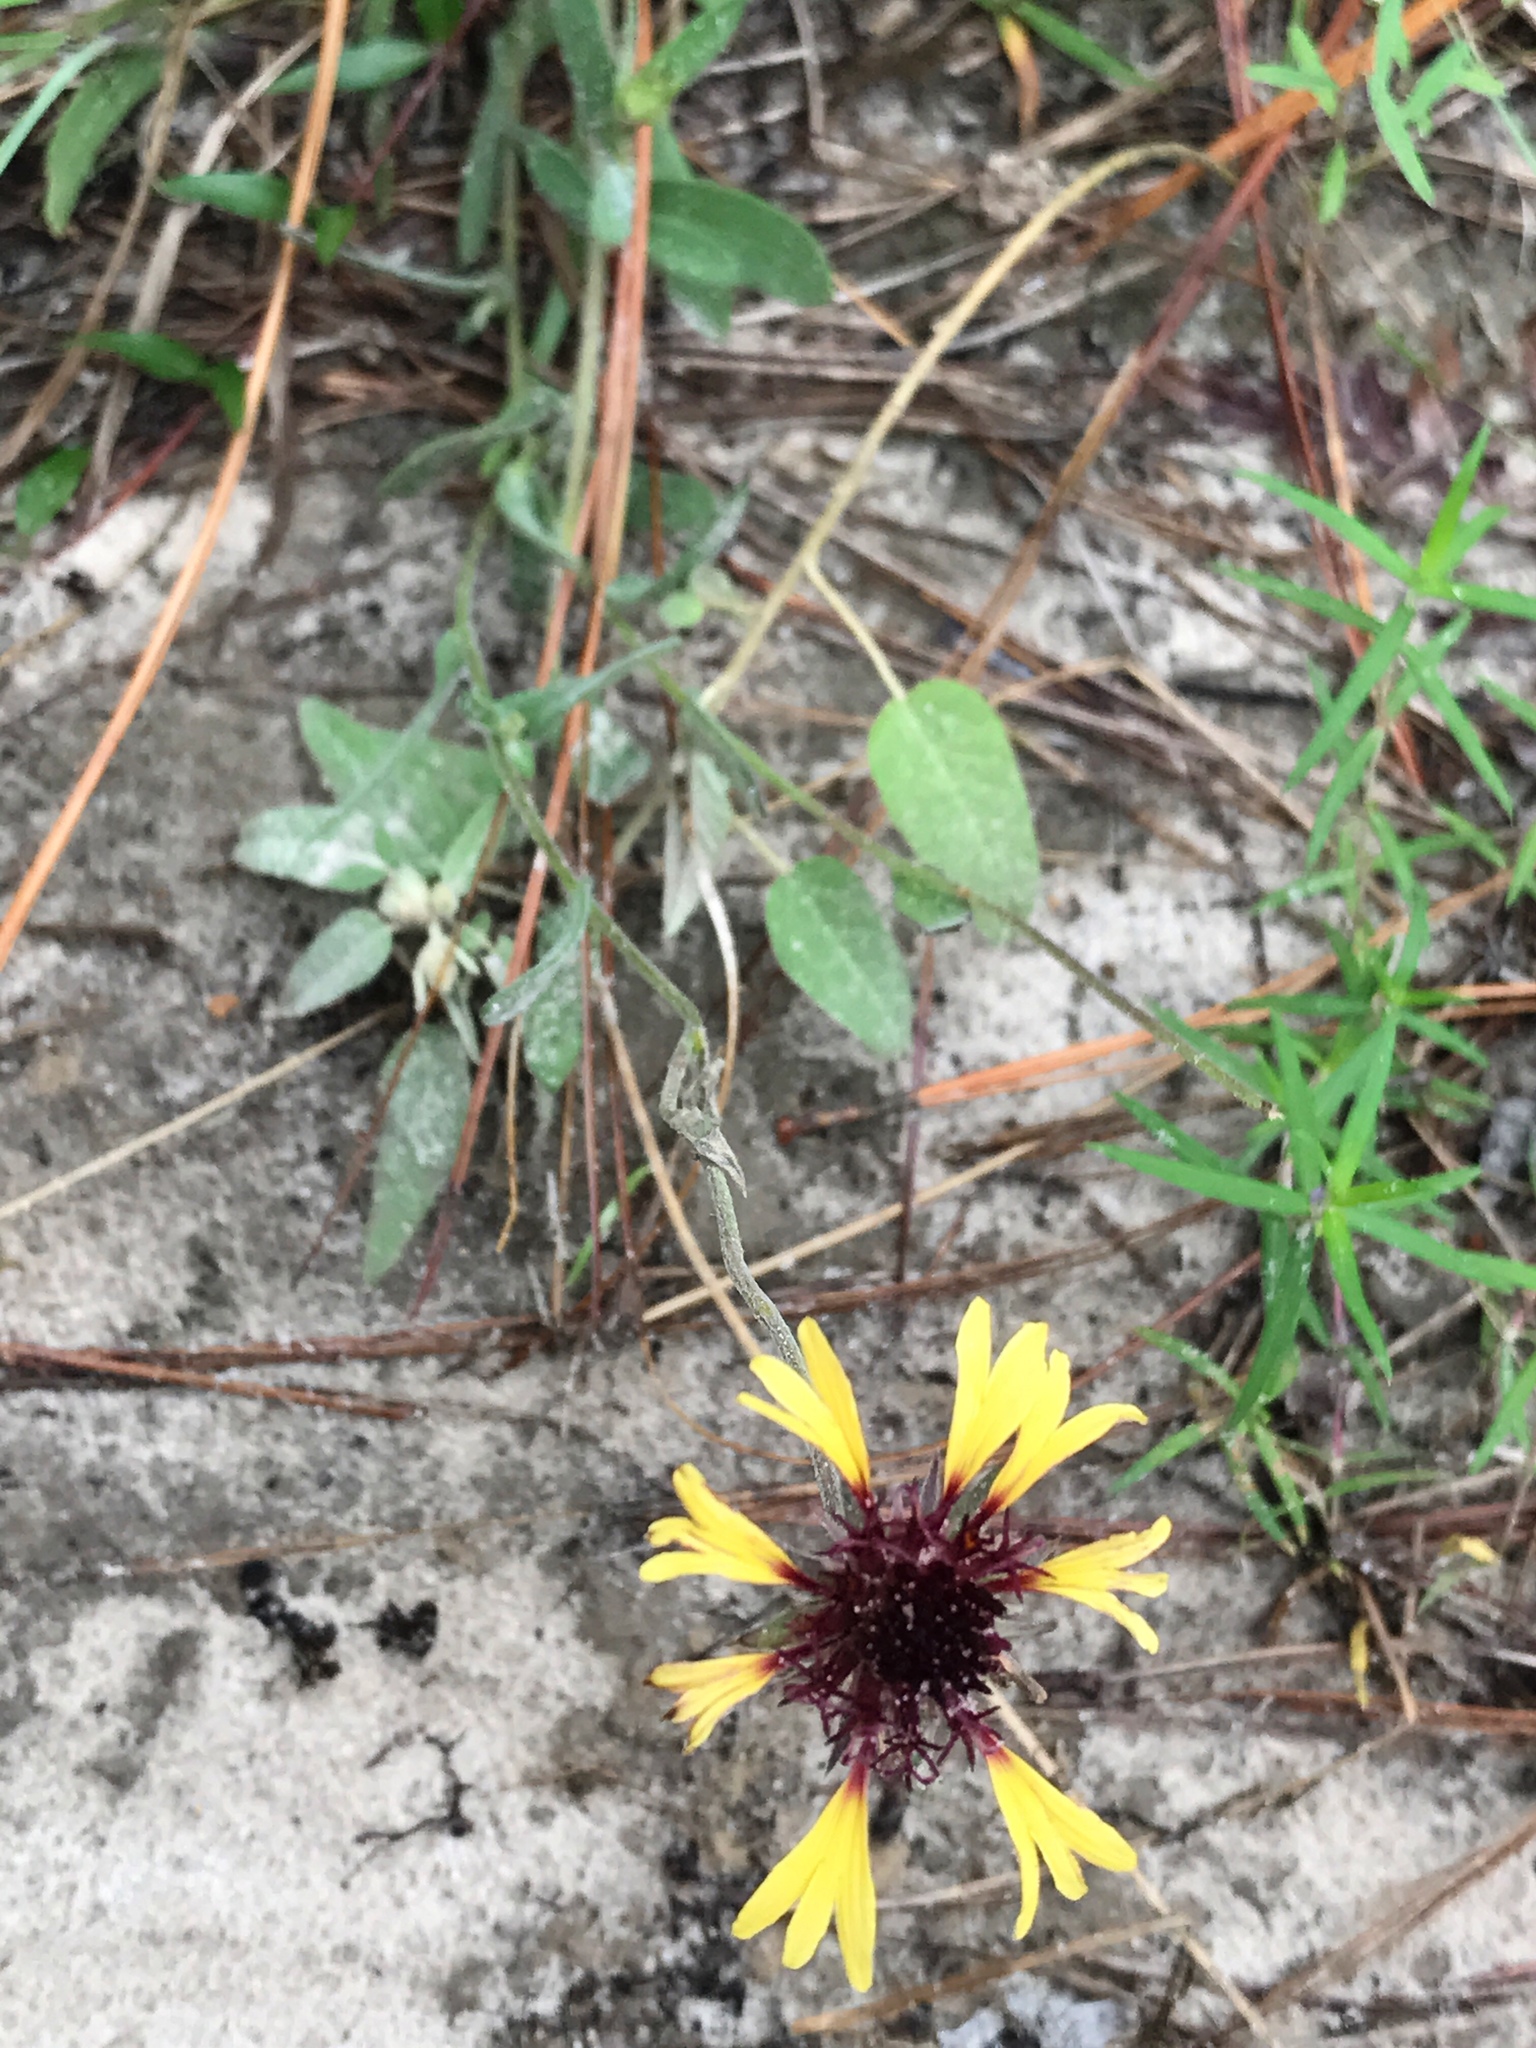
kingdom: Plantae
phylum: Tracheophyta
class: Magnoliopsida
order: Asterales
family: Asteraceae
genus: Gaillardia
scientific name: Gaillardia aestivalis
